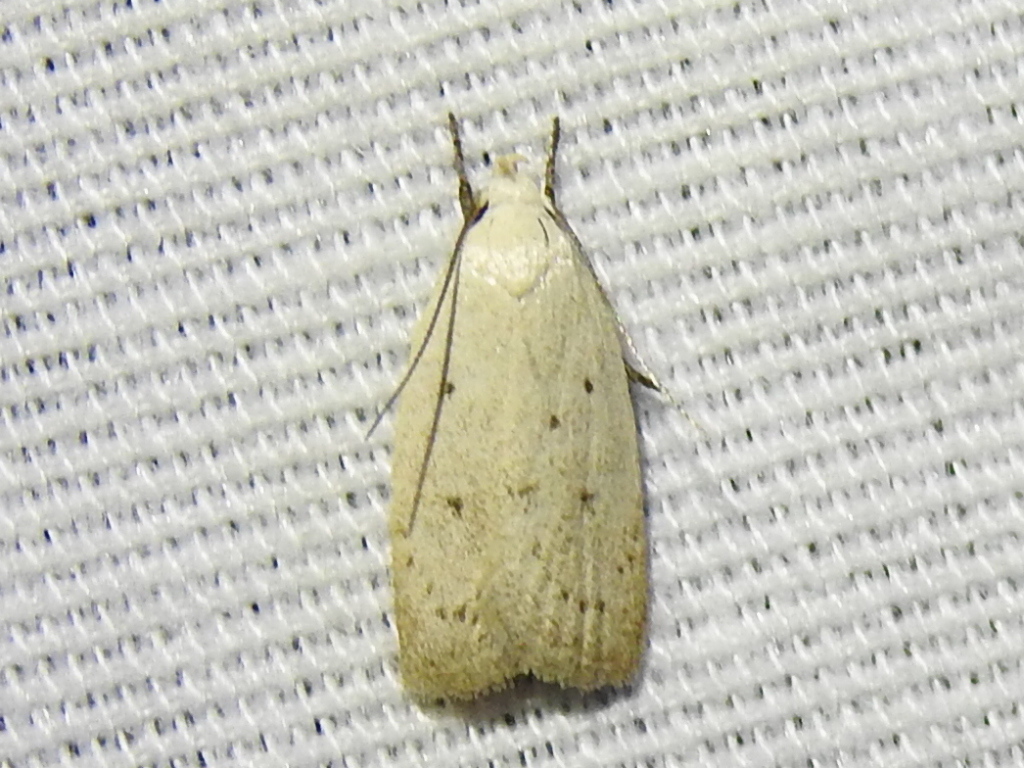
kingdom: Animalia
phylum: Arthropoda
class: Insecta
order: Lepidoptera
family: Oecophoridae
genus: Inga
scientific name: Inga cretacea
